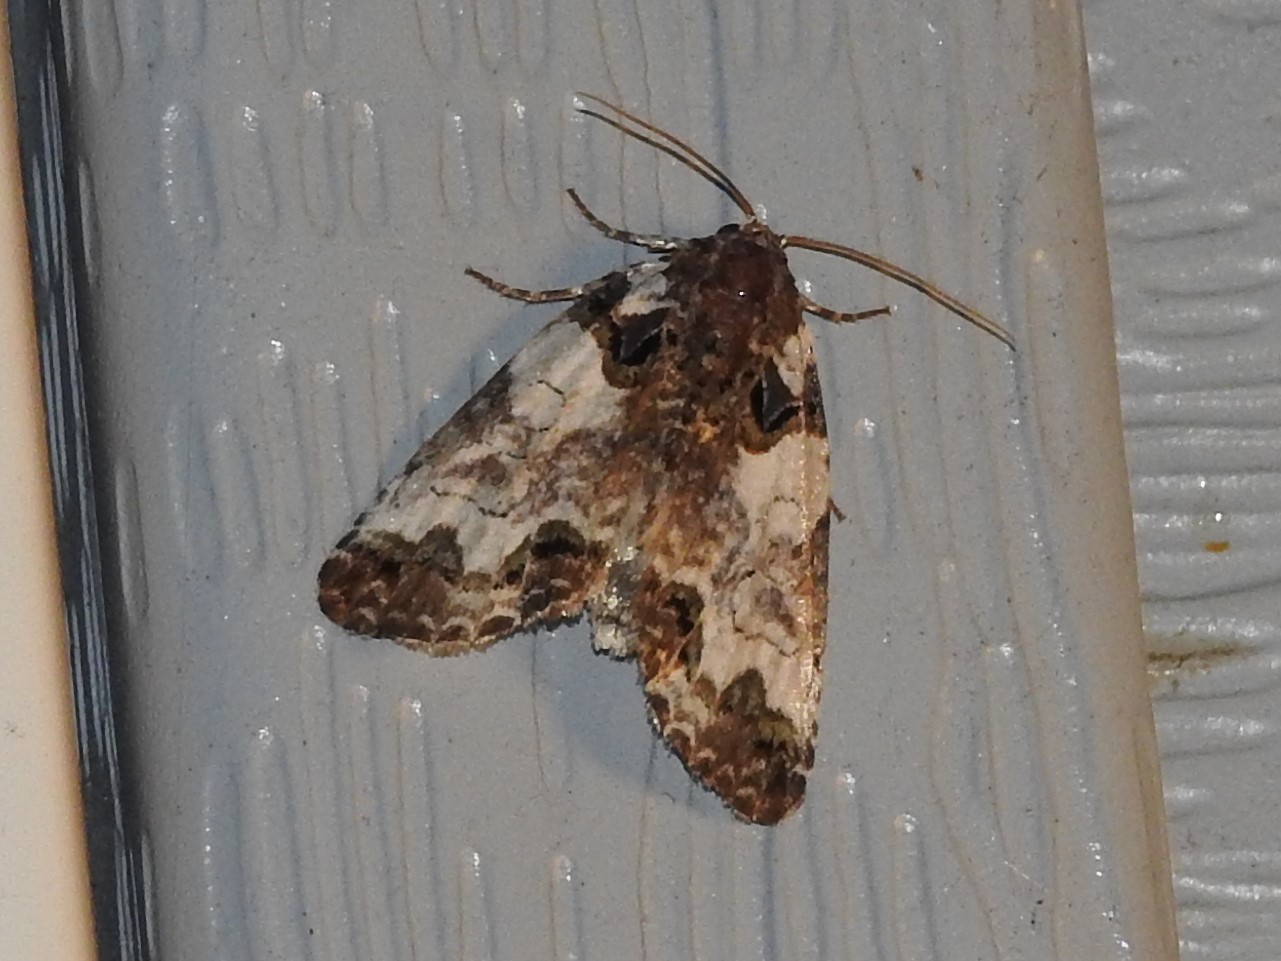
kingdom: Animalia
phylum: Arthropoda
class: Insecta
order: Lepidoptera
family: Noctuidae
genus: Cerma
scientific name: Cerma cerintha
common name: Tufted bird-dropping moth
